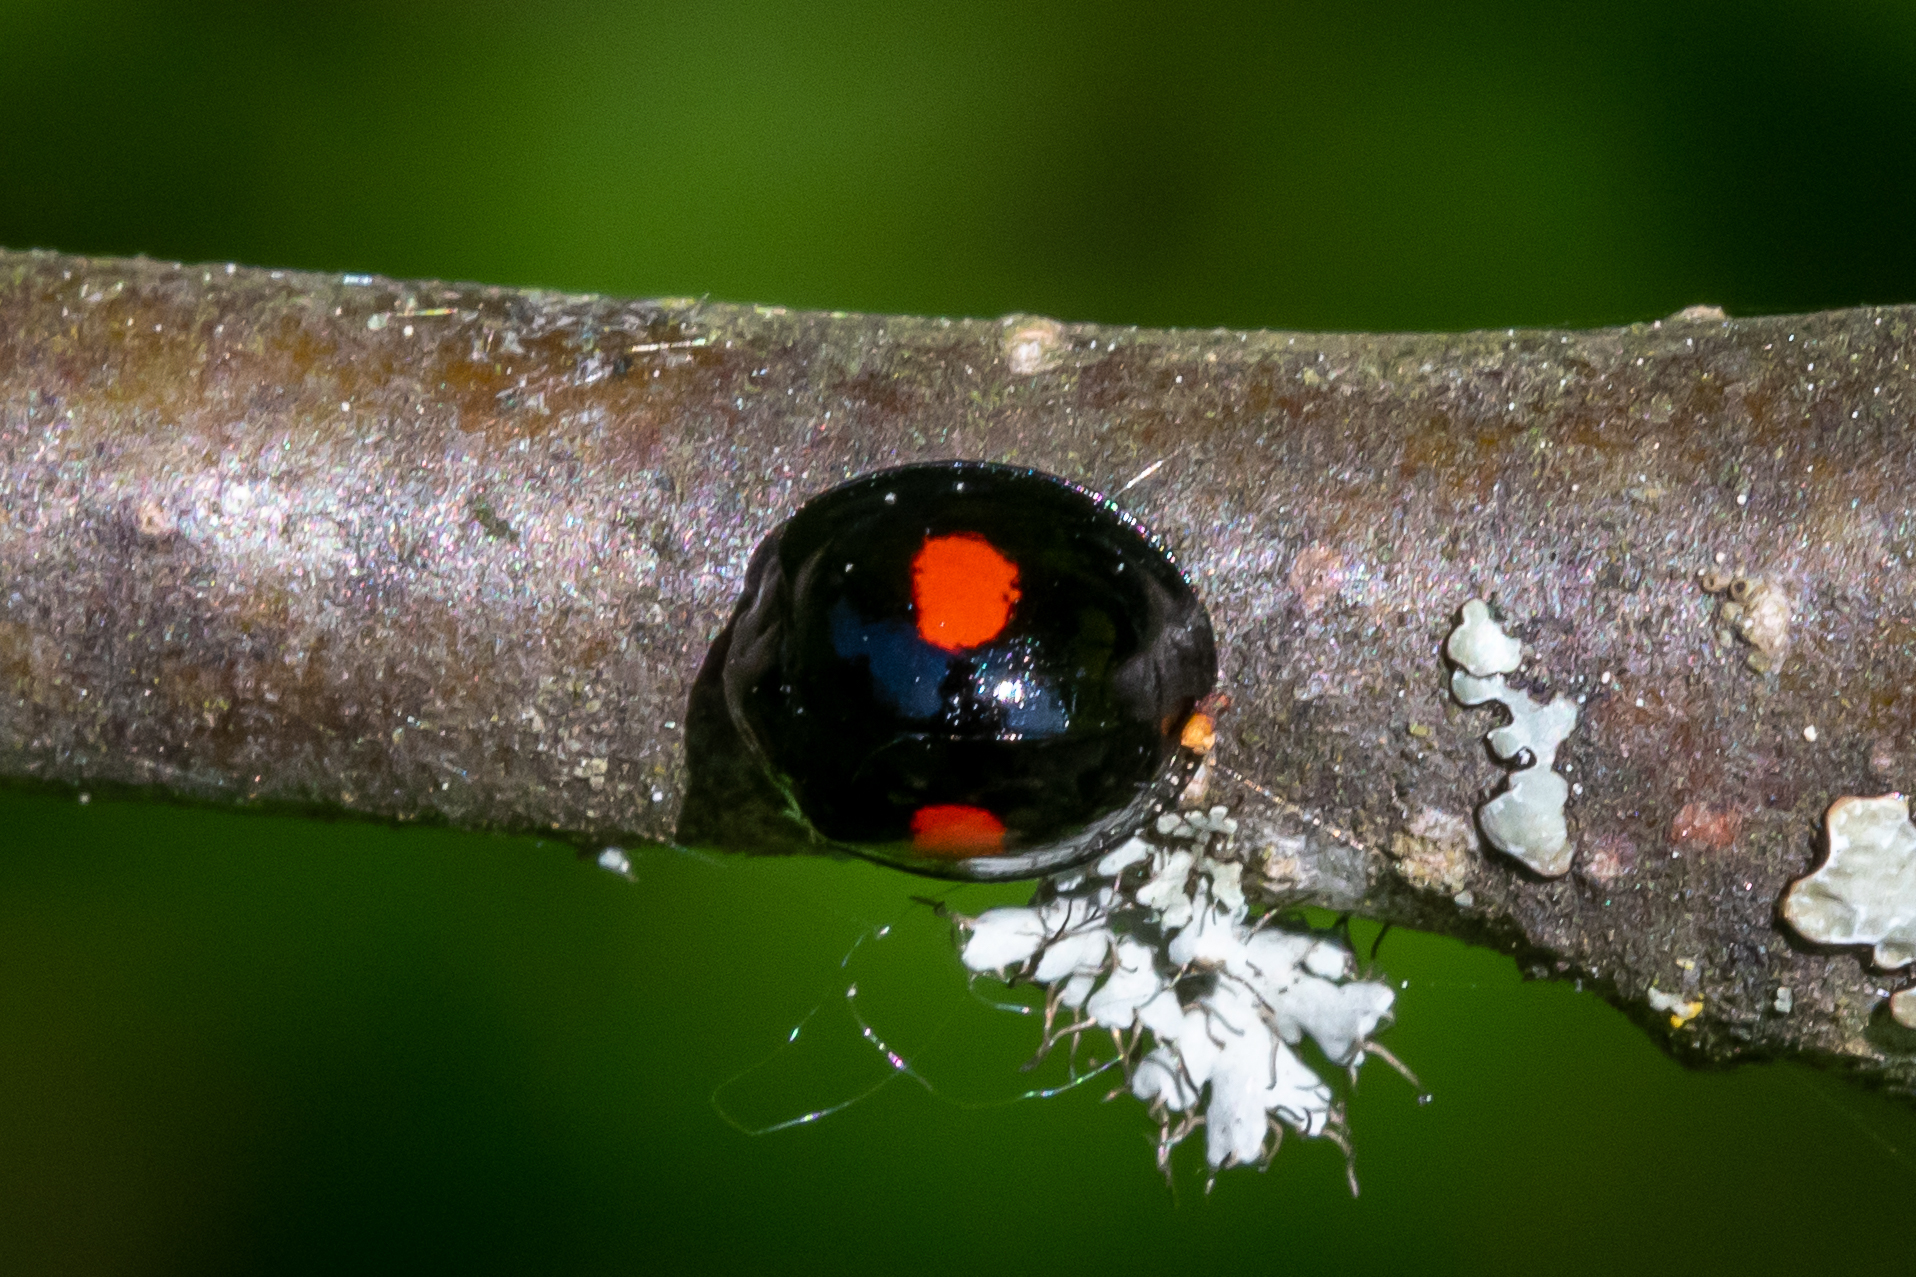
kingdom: Animalia
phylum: Arthropoda
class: Insecta
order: Coleoptera
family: Coccinellidae
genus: Chilocorus
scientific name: Chilocorus renipustulatus
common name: Kidney-spot ladybird
